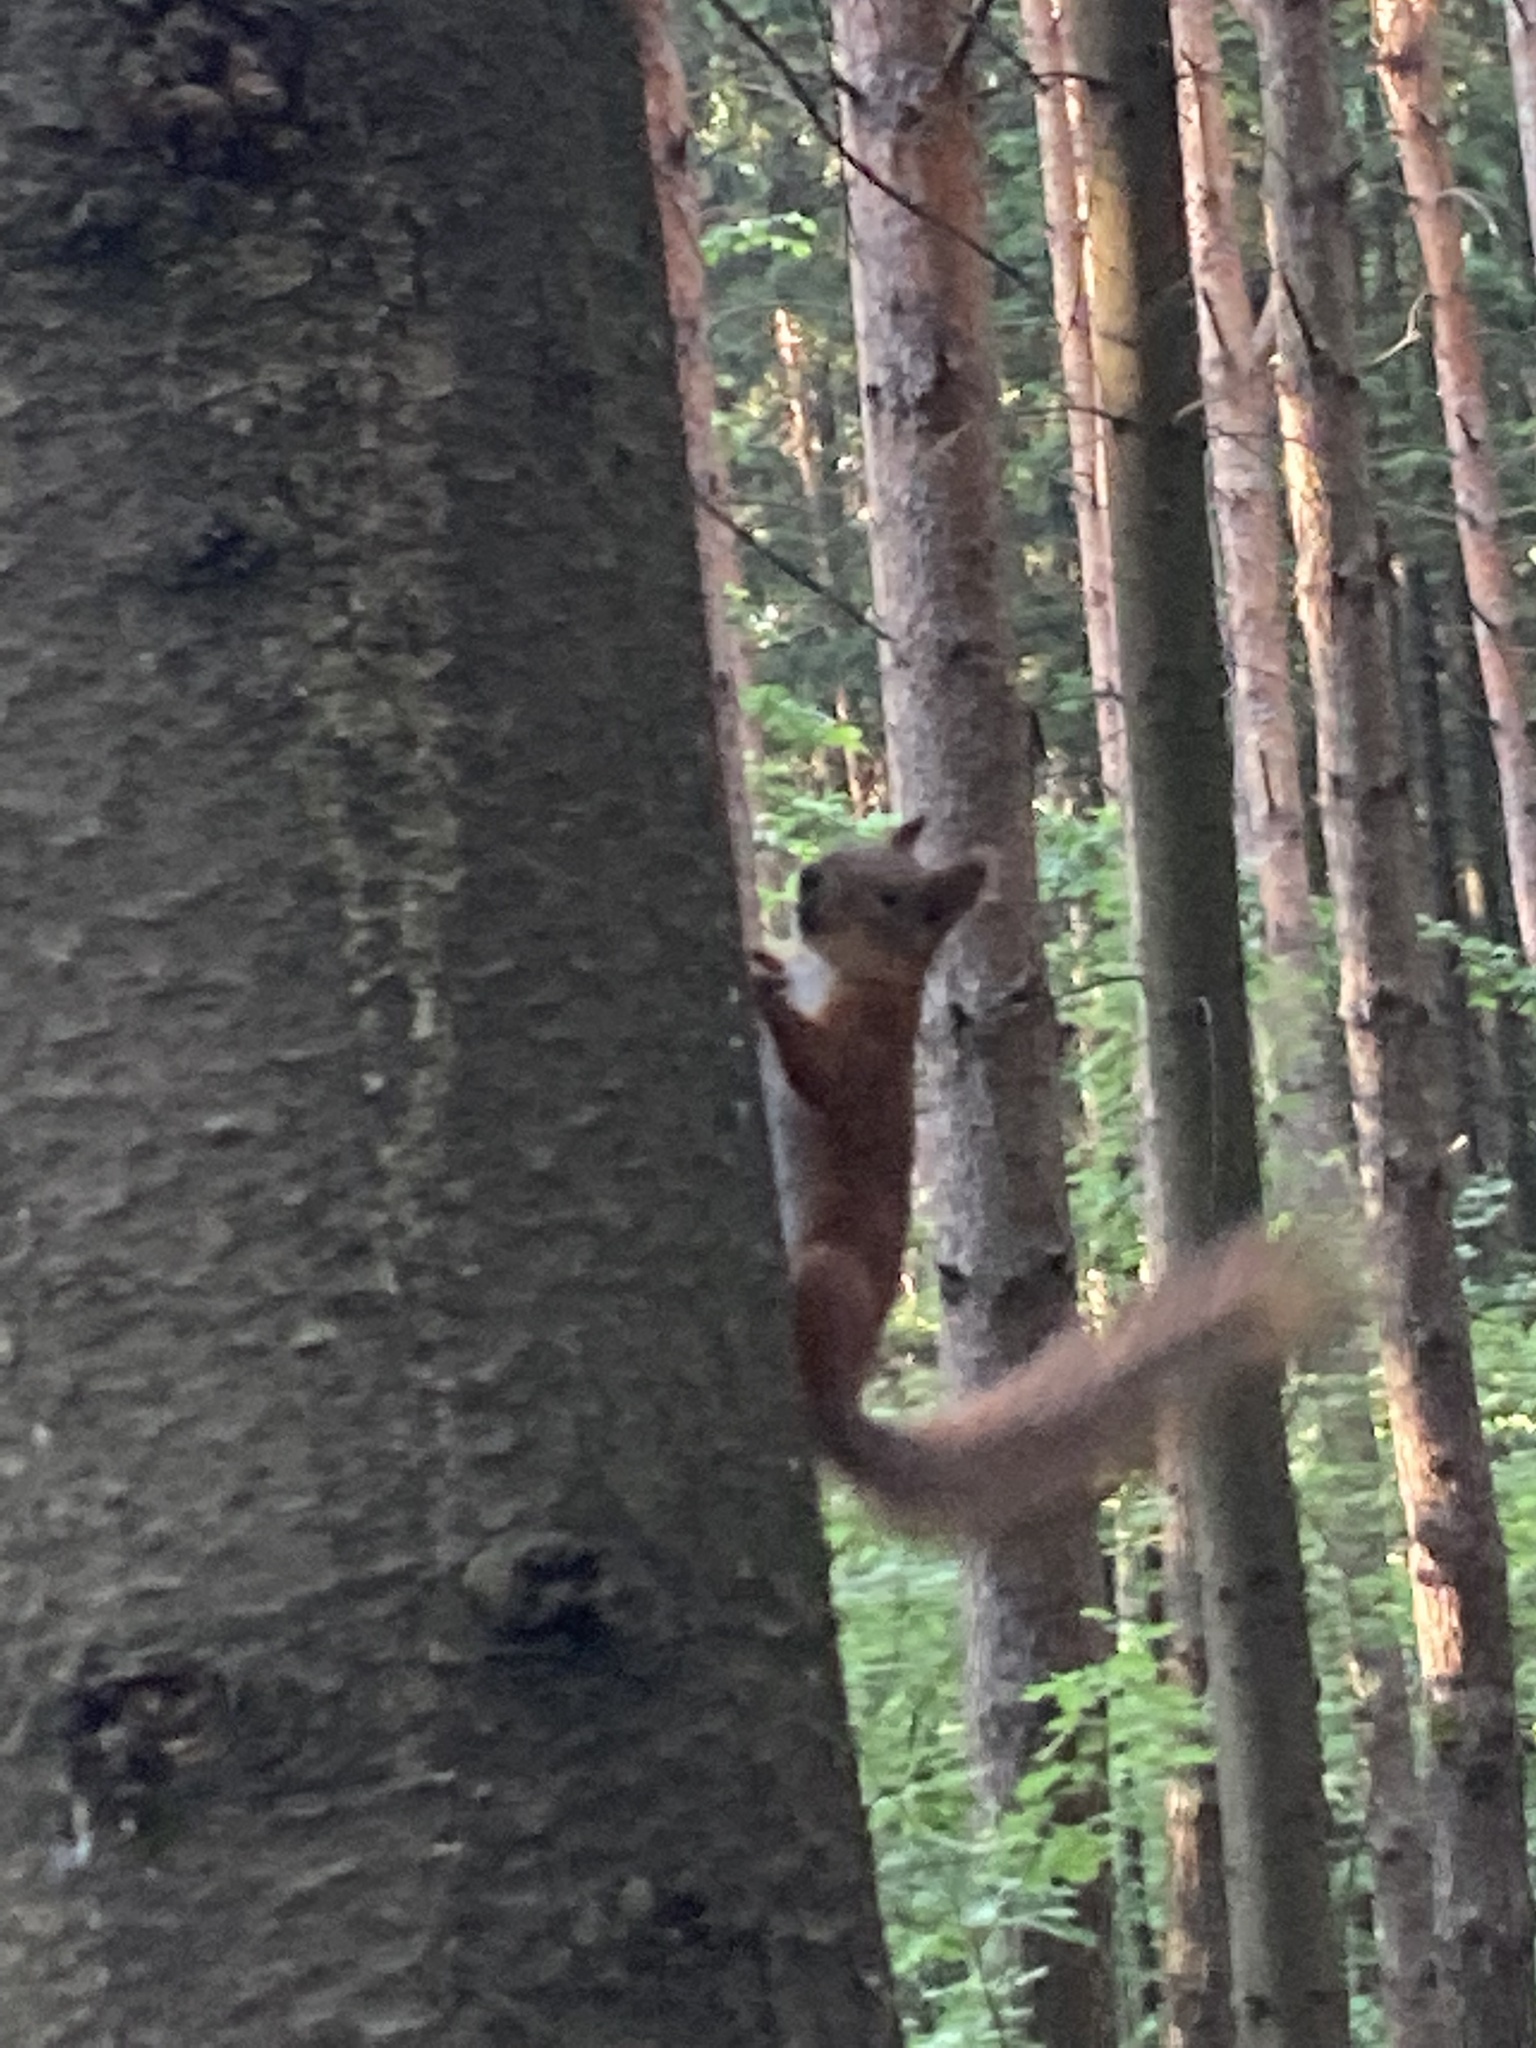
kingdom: Animalia
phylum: Chordata
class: Mammalia
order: Rodentia
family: Sciuridae
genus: Sciurus
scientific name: Sciurus vulgaris
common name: Eurasian red squirrel
